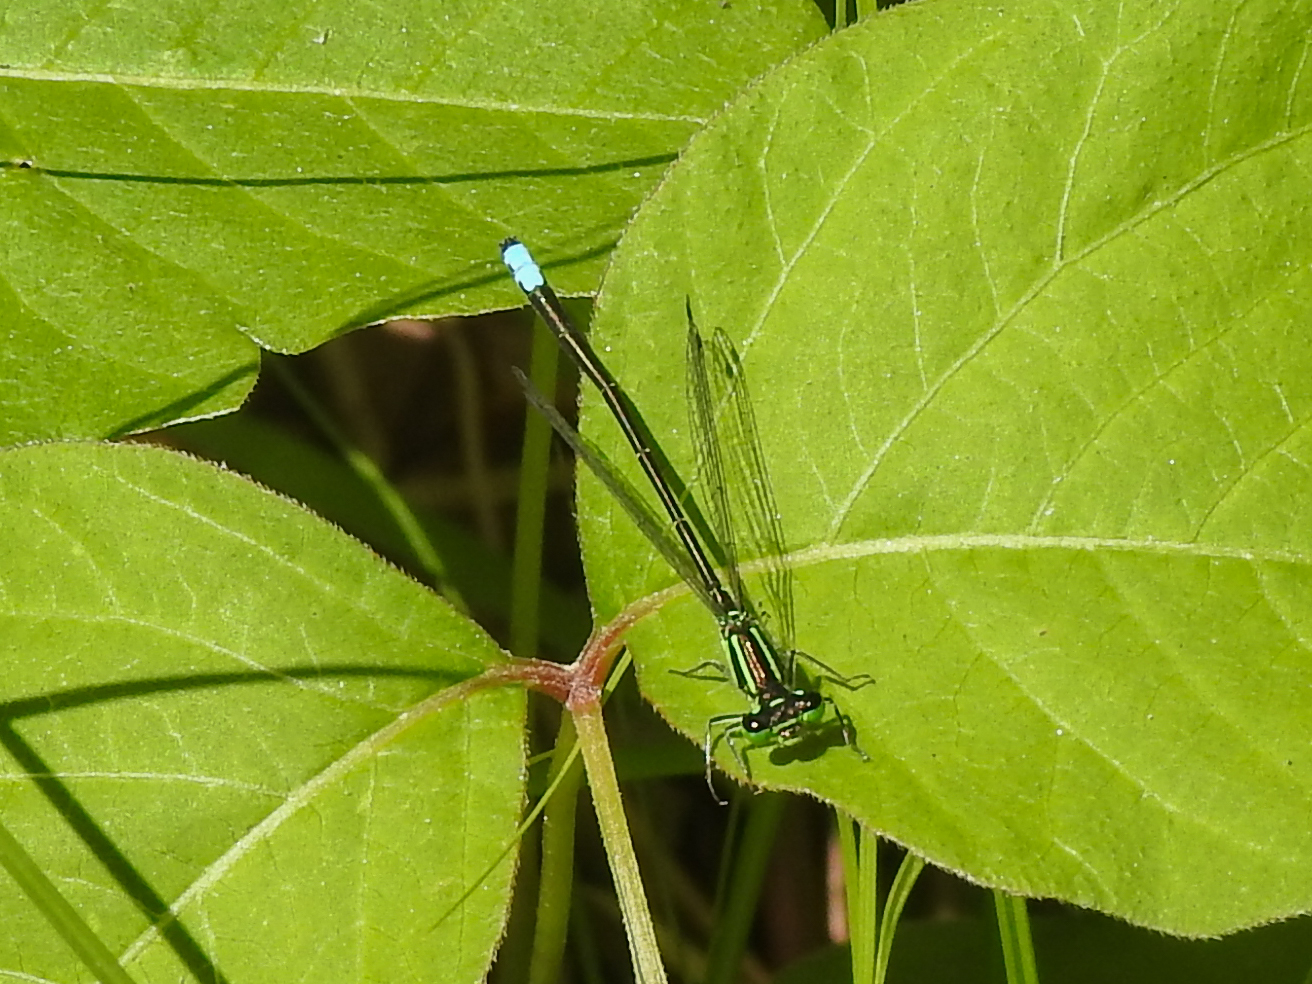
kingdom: Animalia
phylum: Arthropoda
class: Insecta
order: Odonata
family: Coenagrionidae
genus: Ischnura
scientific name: Ischnura verticalis
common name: Eastern forktail
